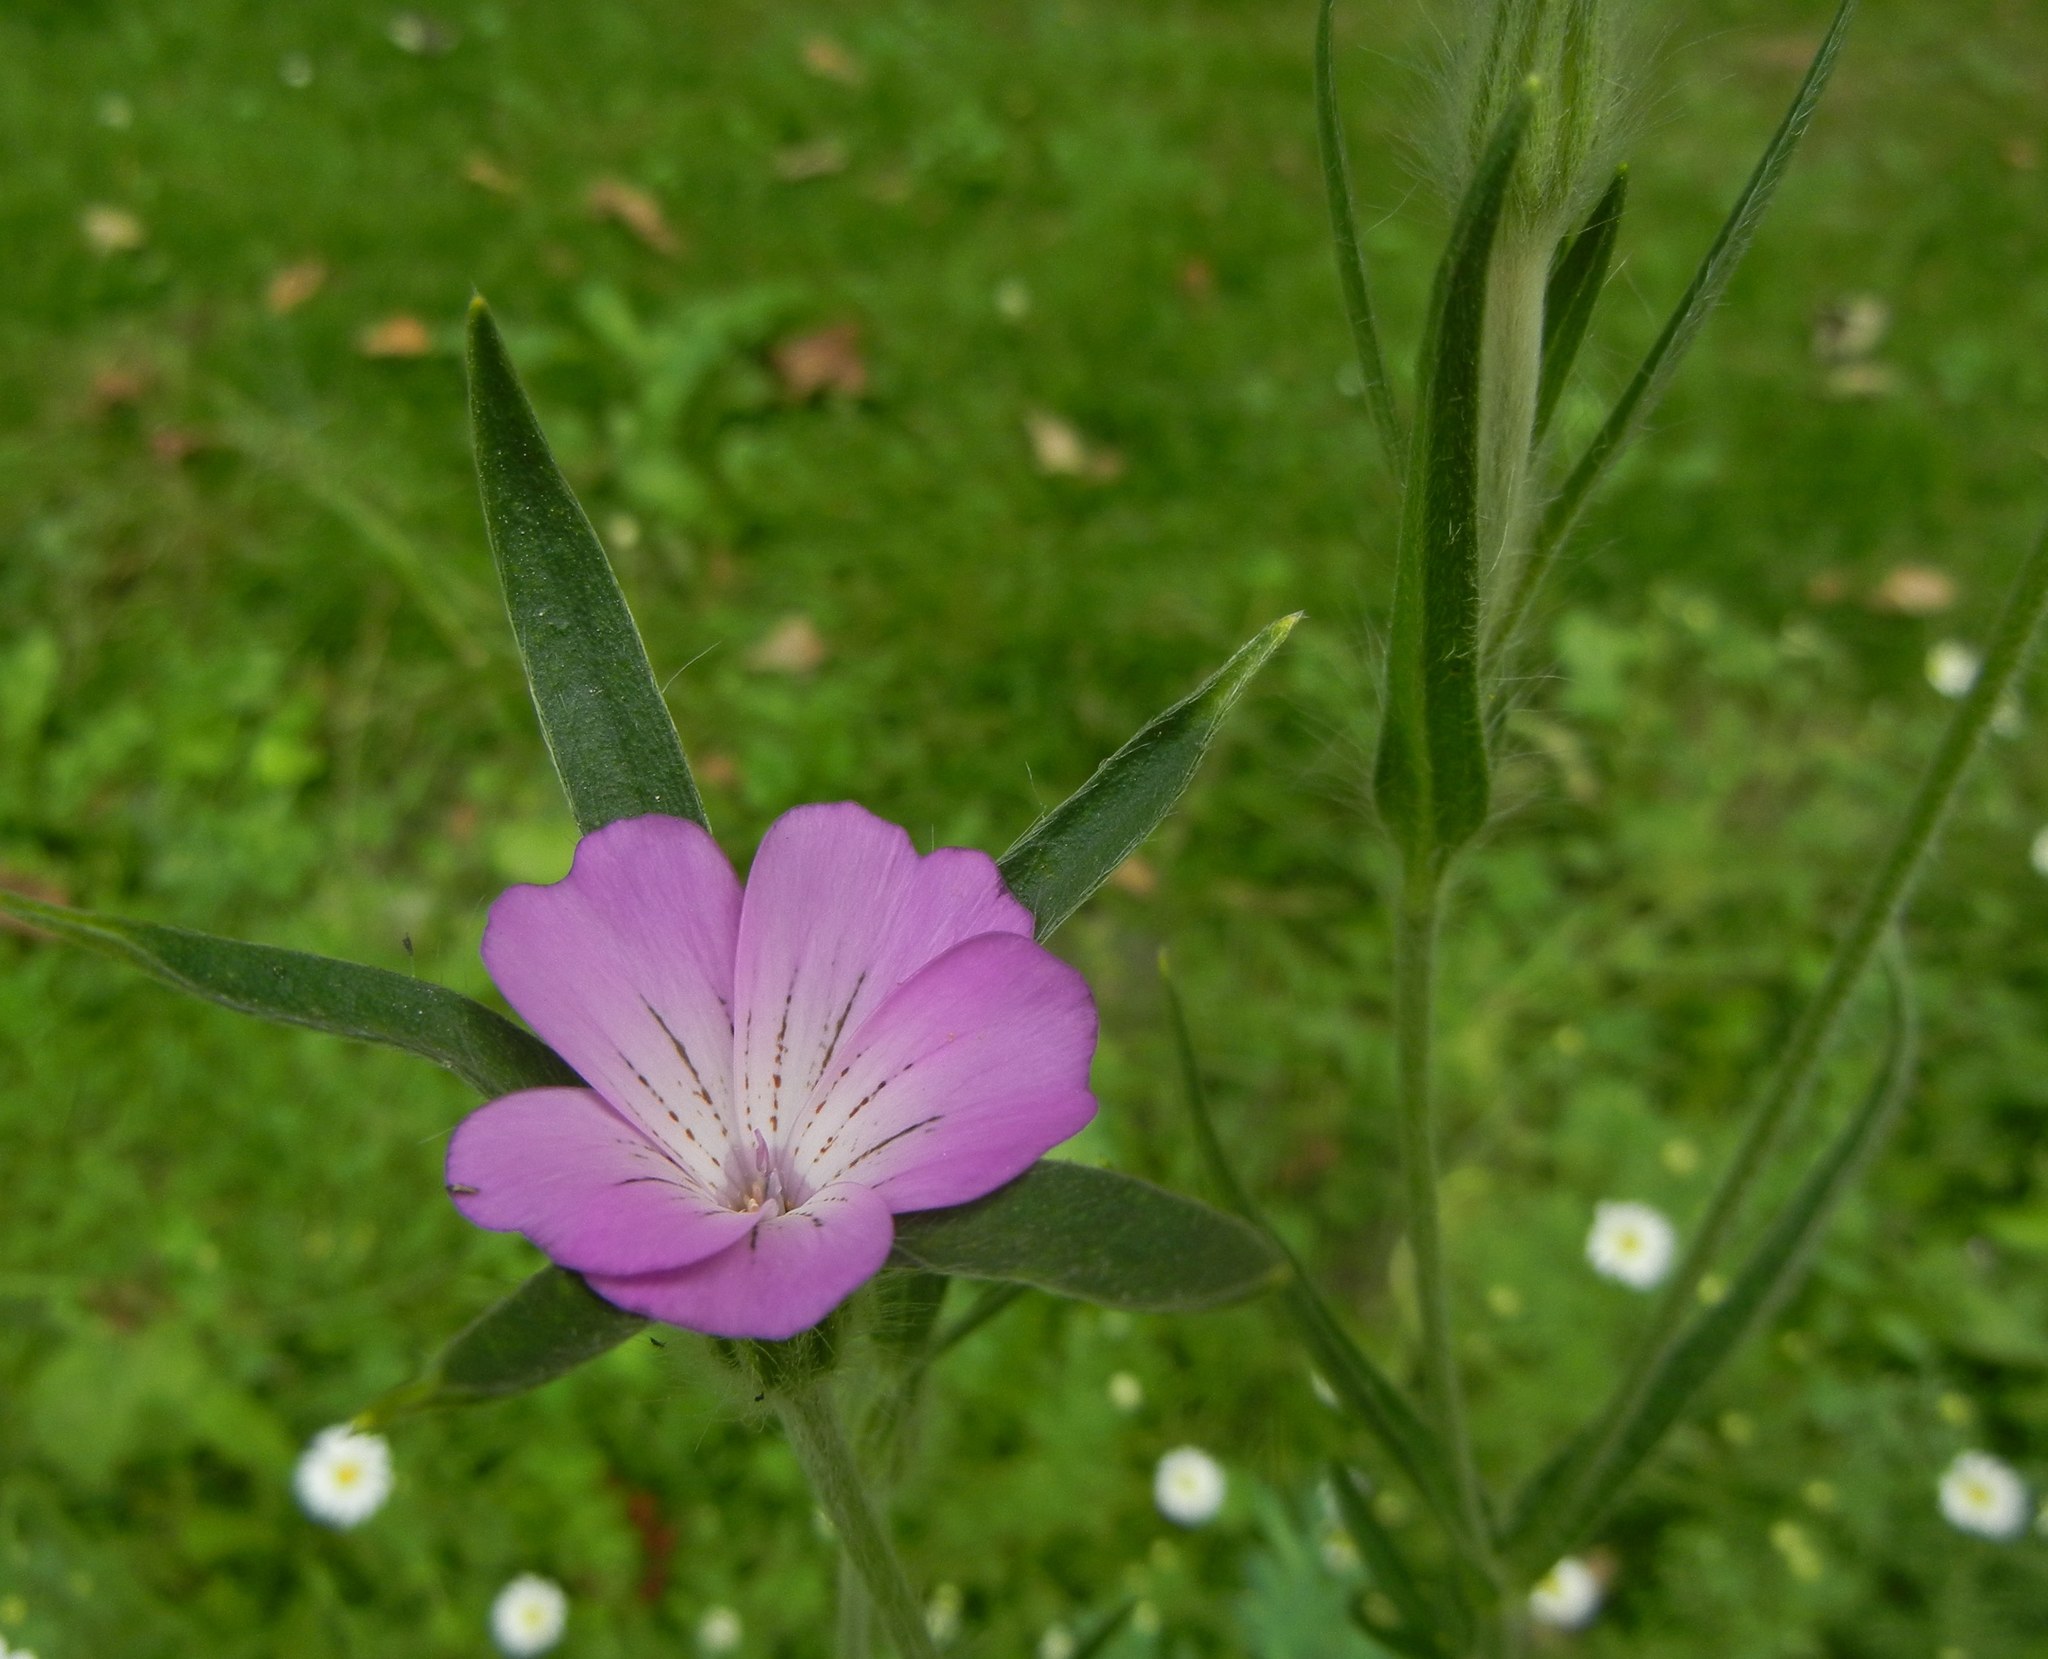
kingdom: Plantae
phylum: Tracheophyta
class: Magnoliopsida
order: Caryophyllales
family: Caryophyllaceae
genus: Agrostemma
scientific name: Agrostemma githago
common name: Common corncockle
